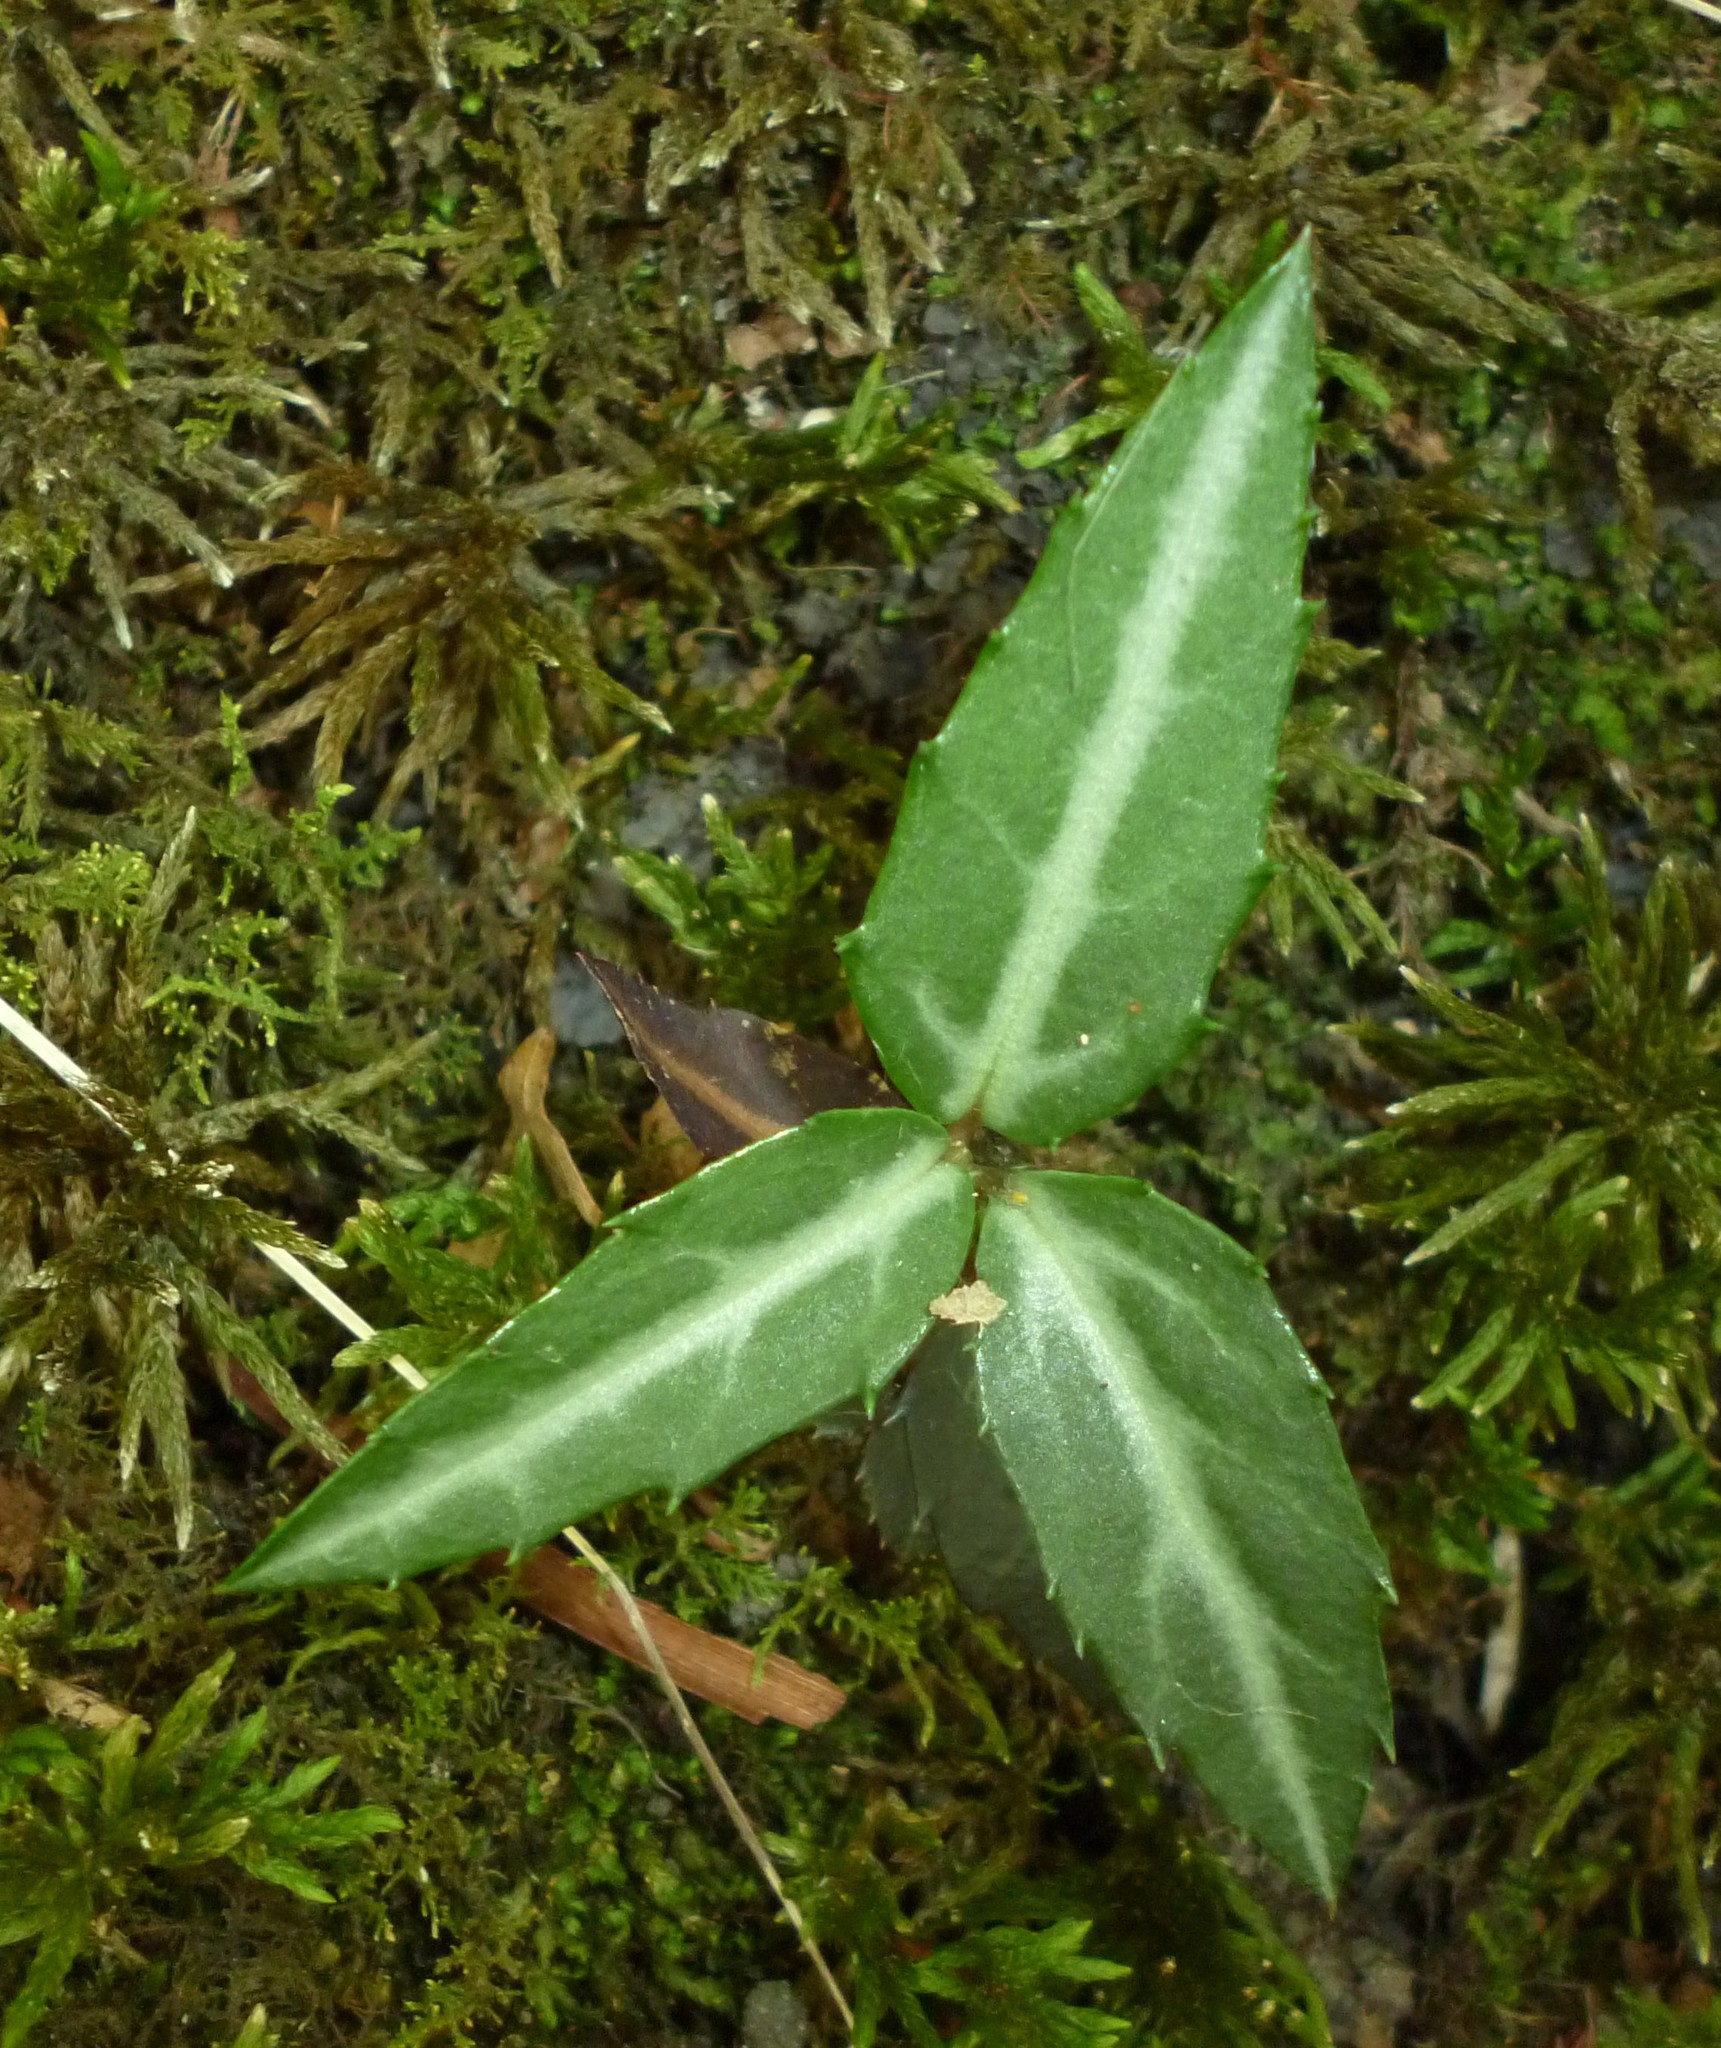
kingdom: Plantae
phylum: Tracheophyta
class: Magnoliopsida
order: Ericales
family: Ericaceae
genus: Chimaphila
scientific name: Chimaphila maculata
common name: Spotted pipsissewa
